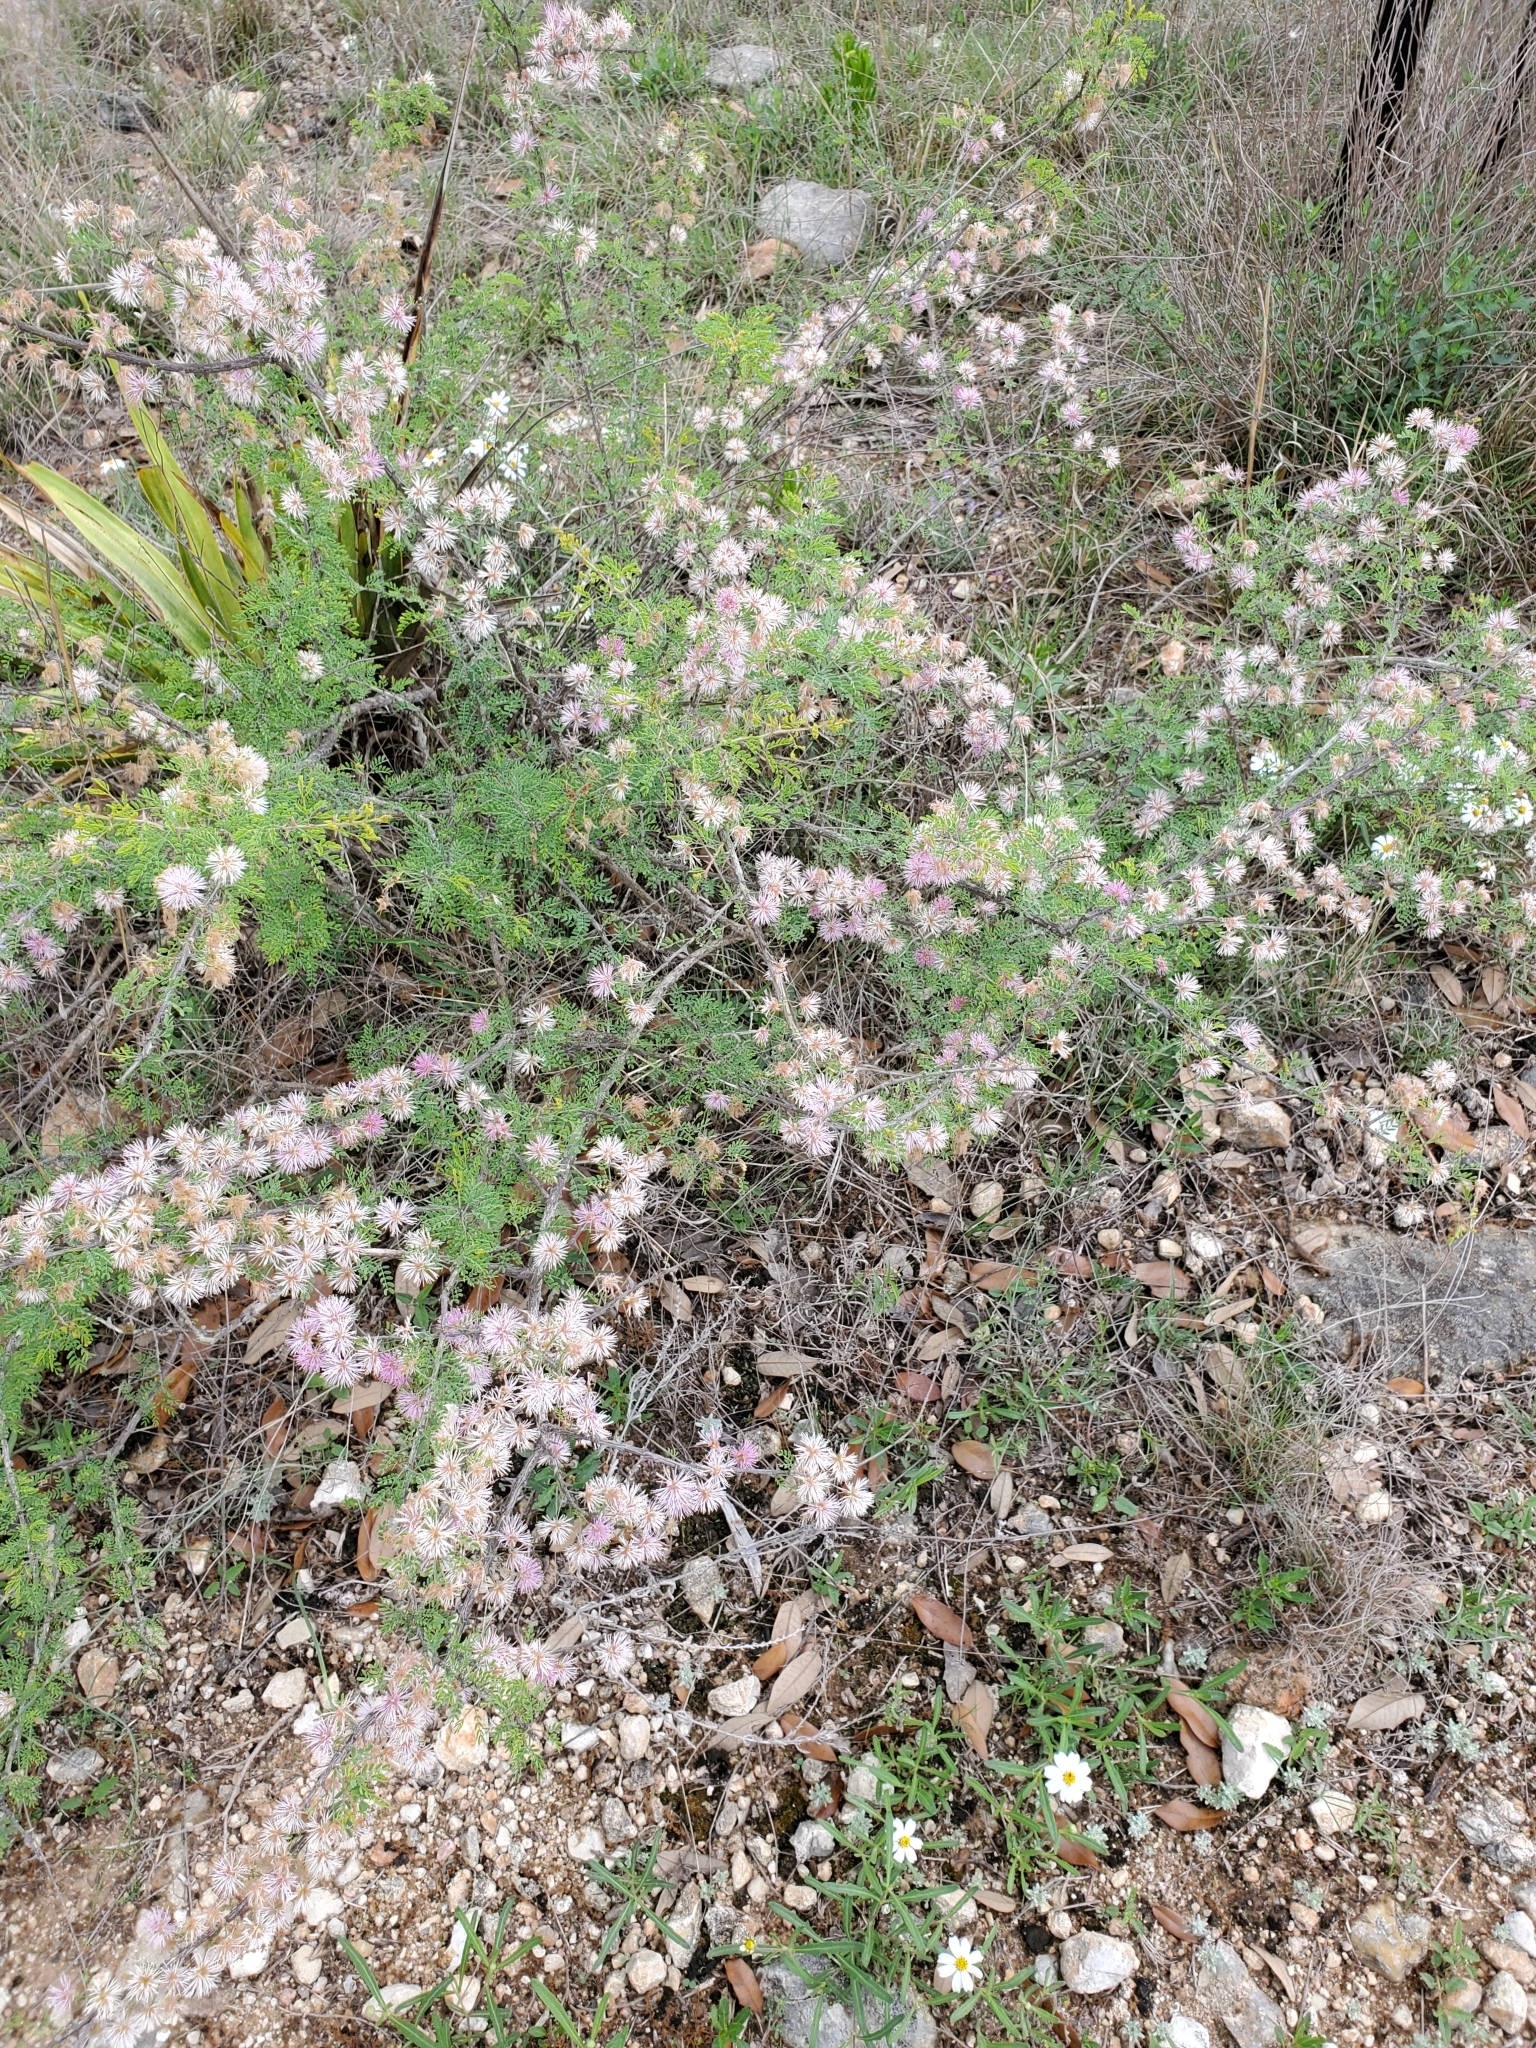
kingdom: Plantae
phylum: Tracheophyta
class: Magnoliopsida
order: Fabales
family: Fabaceae
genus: Mimosa
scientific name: Mimosa borealis
